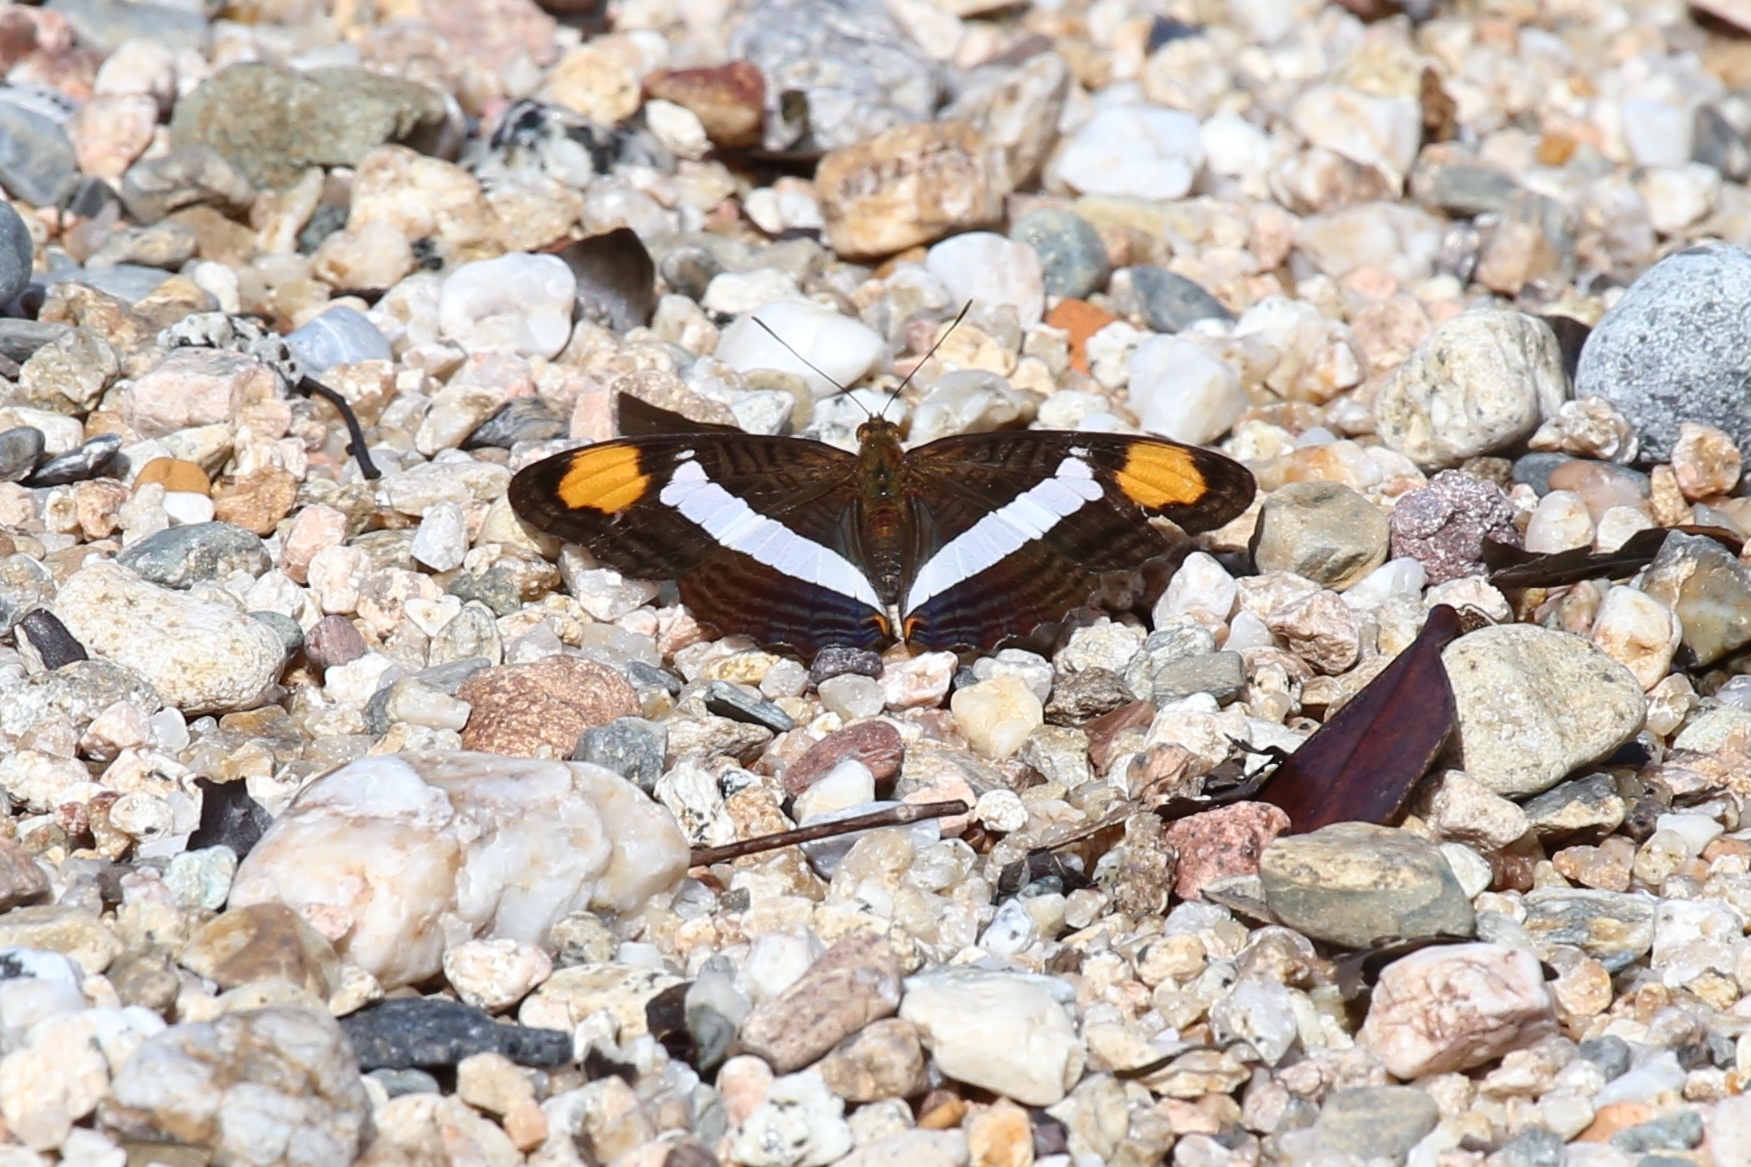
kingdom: Animalia
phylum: Arthropoda
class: Insecta
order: Lepidoptera
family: Nymphalidae
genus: Limenitis
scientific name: Limenitis Adelpha basiloides
